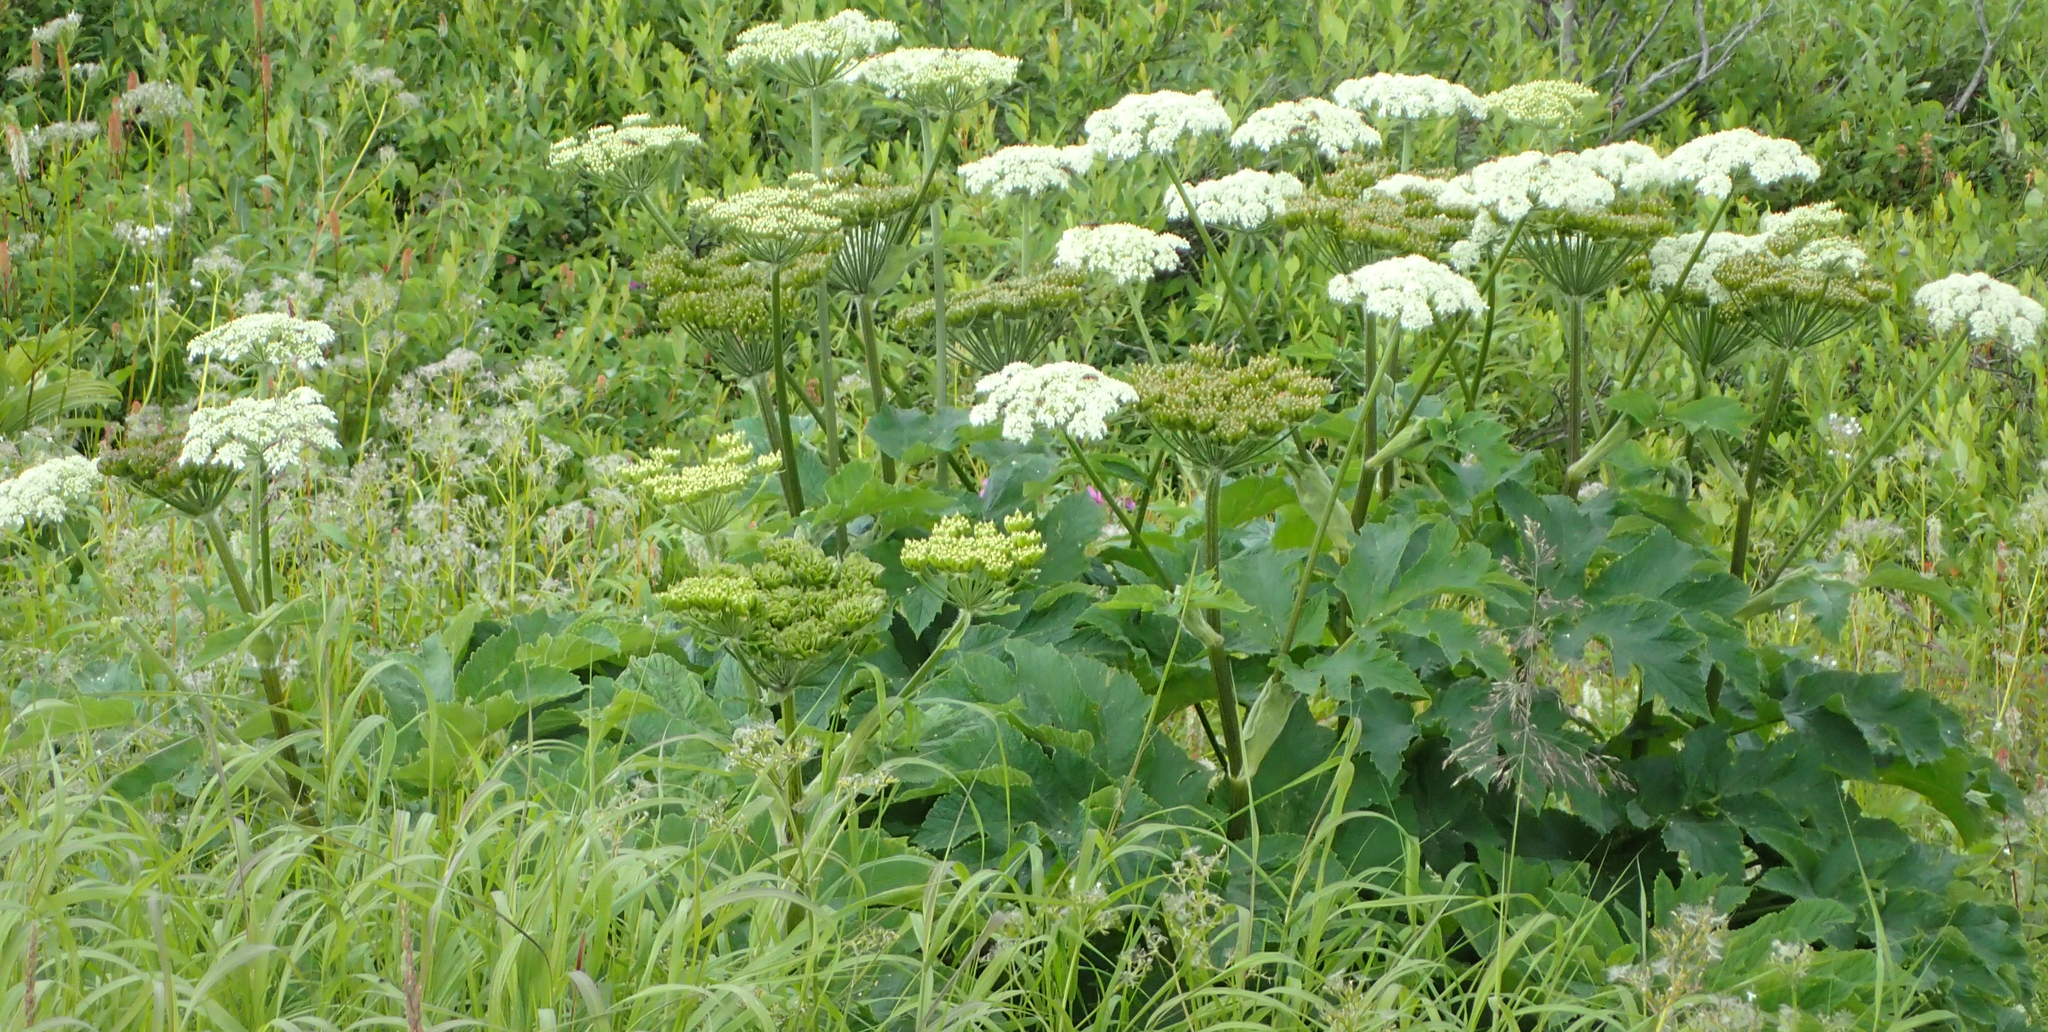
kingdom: Plantae
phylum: Tracheophyta
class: Magnoliopsida
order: Apiales
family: Apiaceae
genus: Heracleum
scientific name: Heracleum maximum
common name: American cow parsnip
